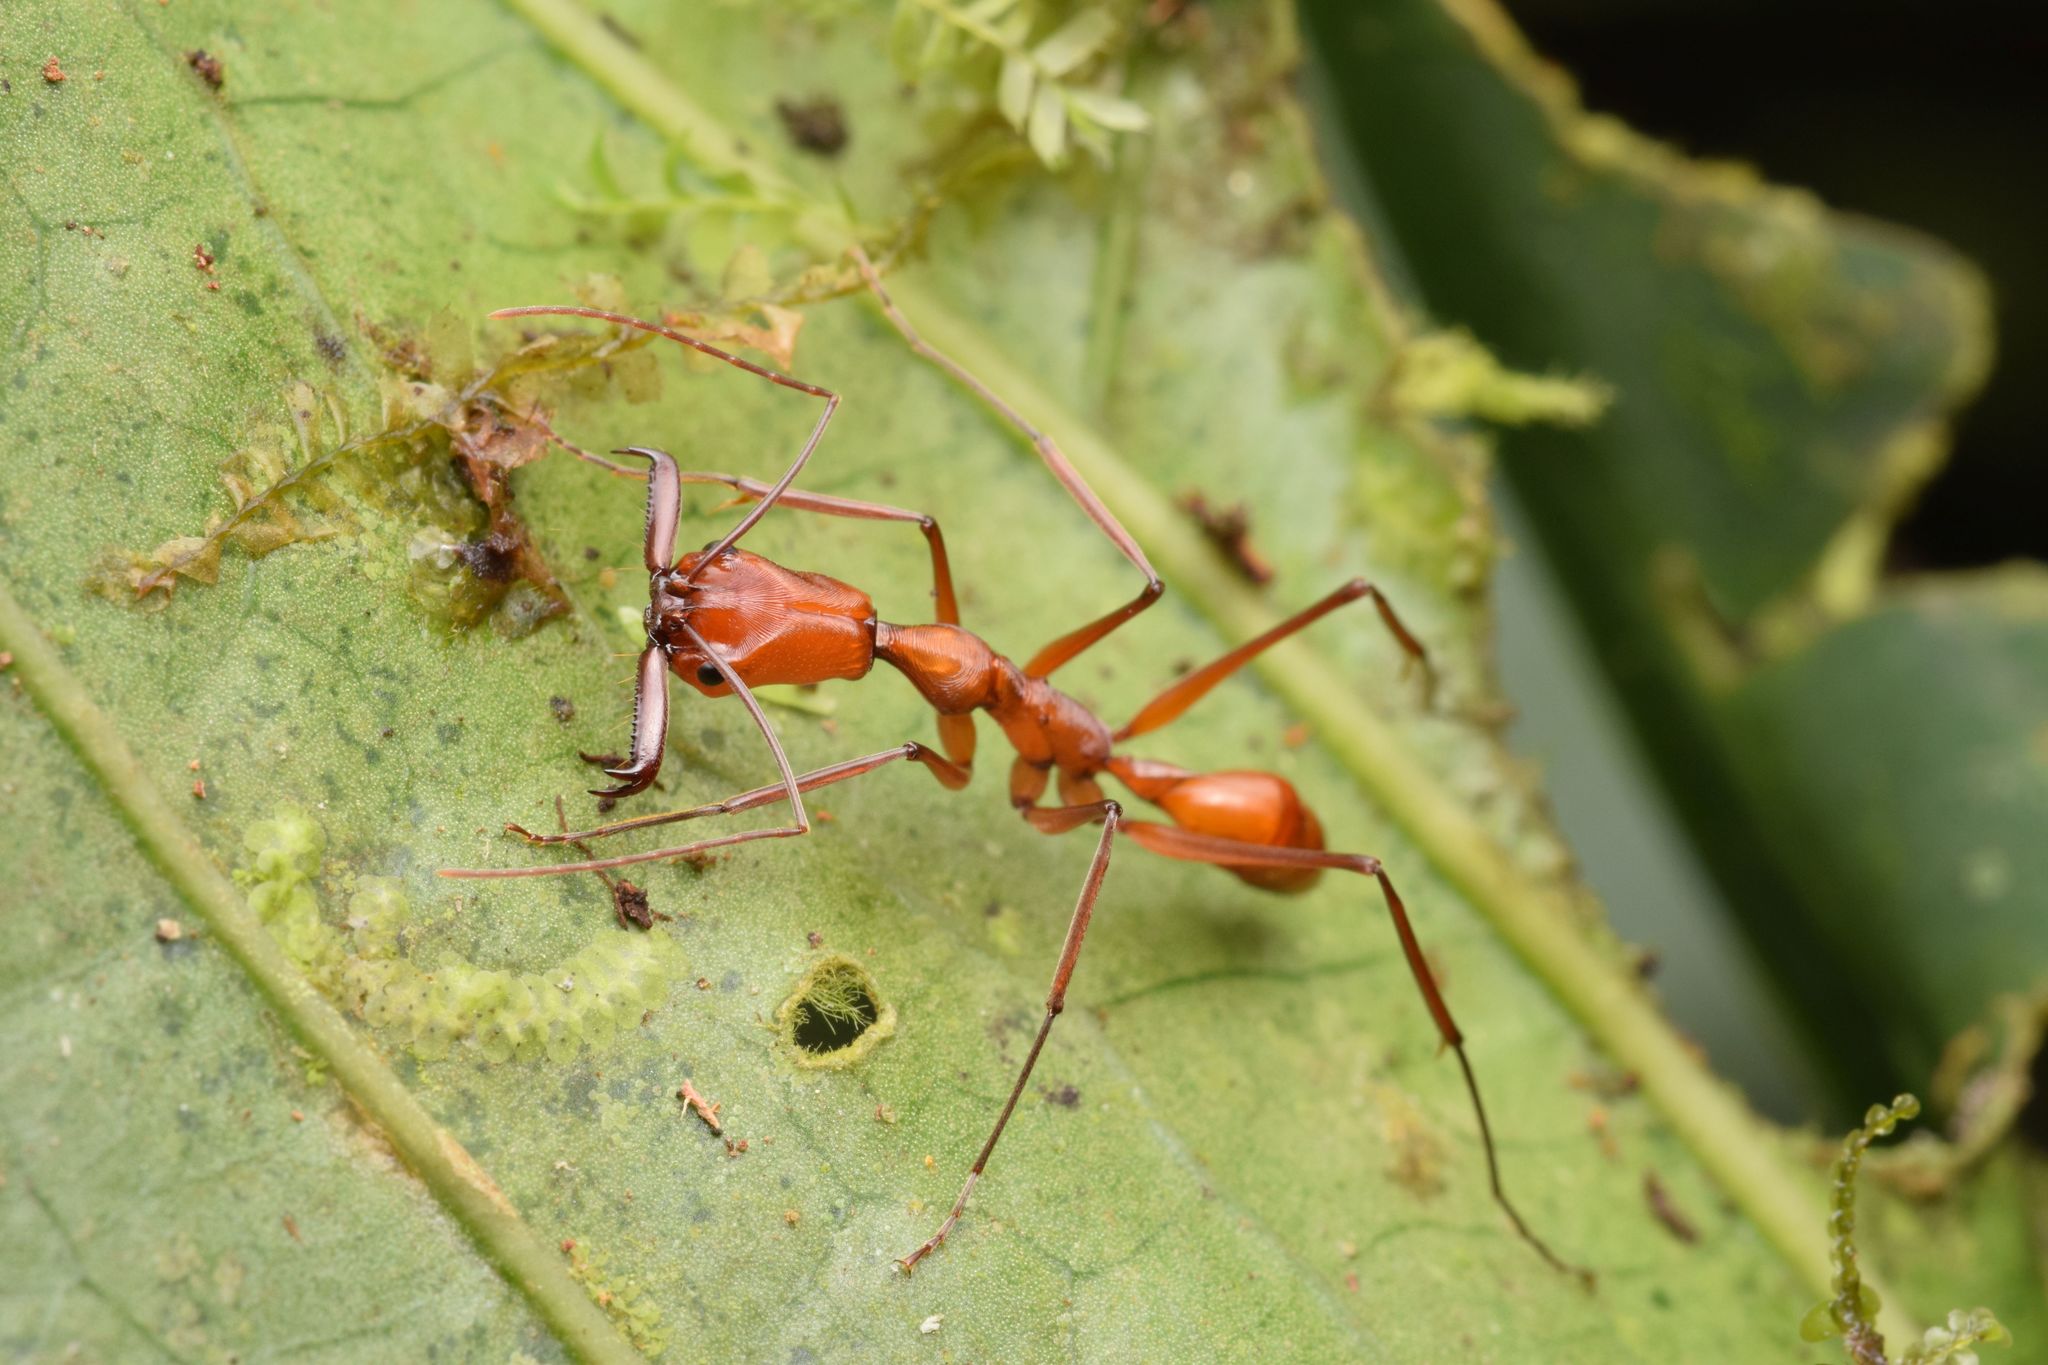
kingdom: Animalia
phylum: Arthropoda
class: Insecta
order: Hymenoptera
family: Formicidae
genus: Odontomachus
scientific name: Odontomachus davidsoni
